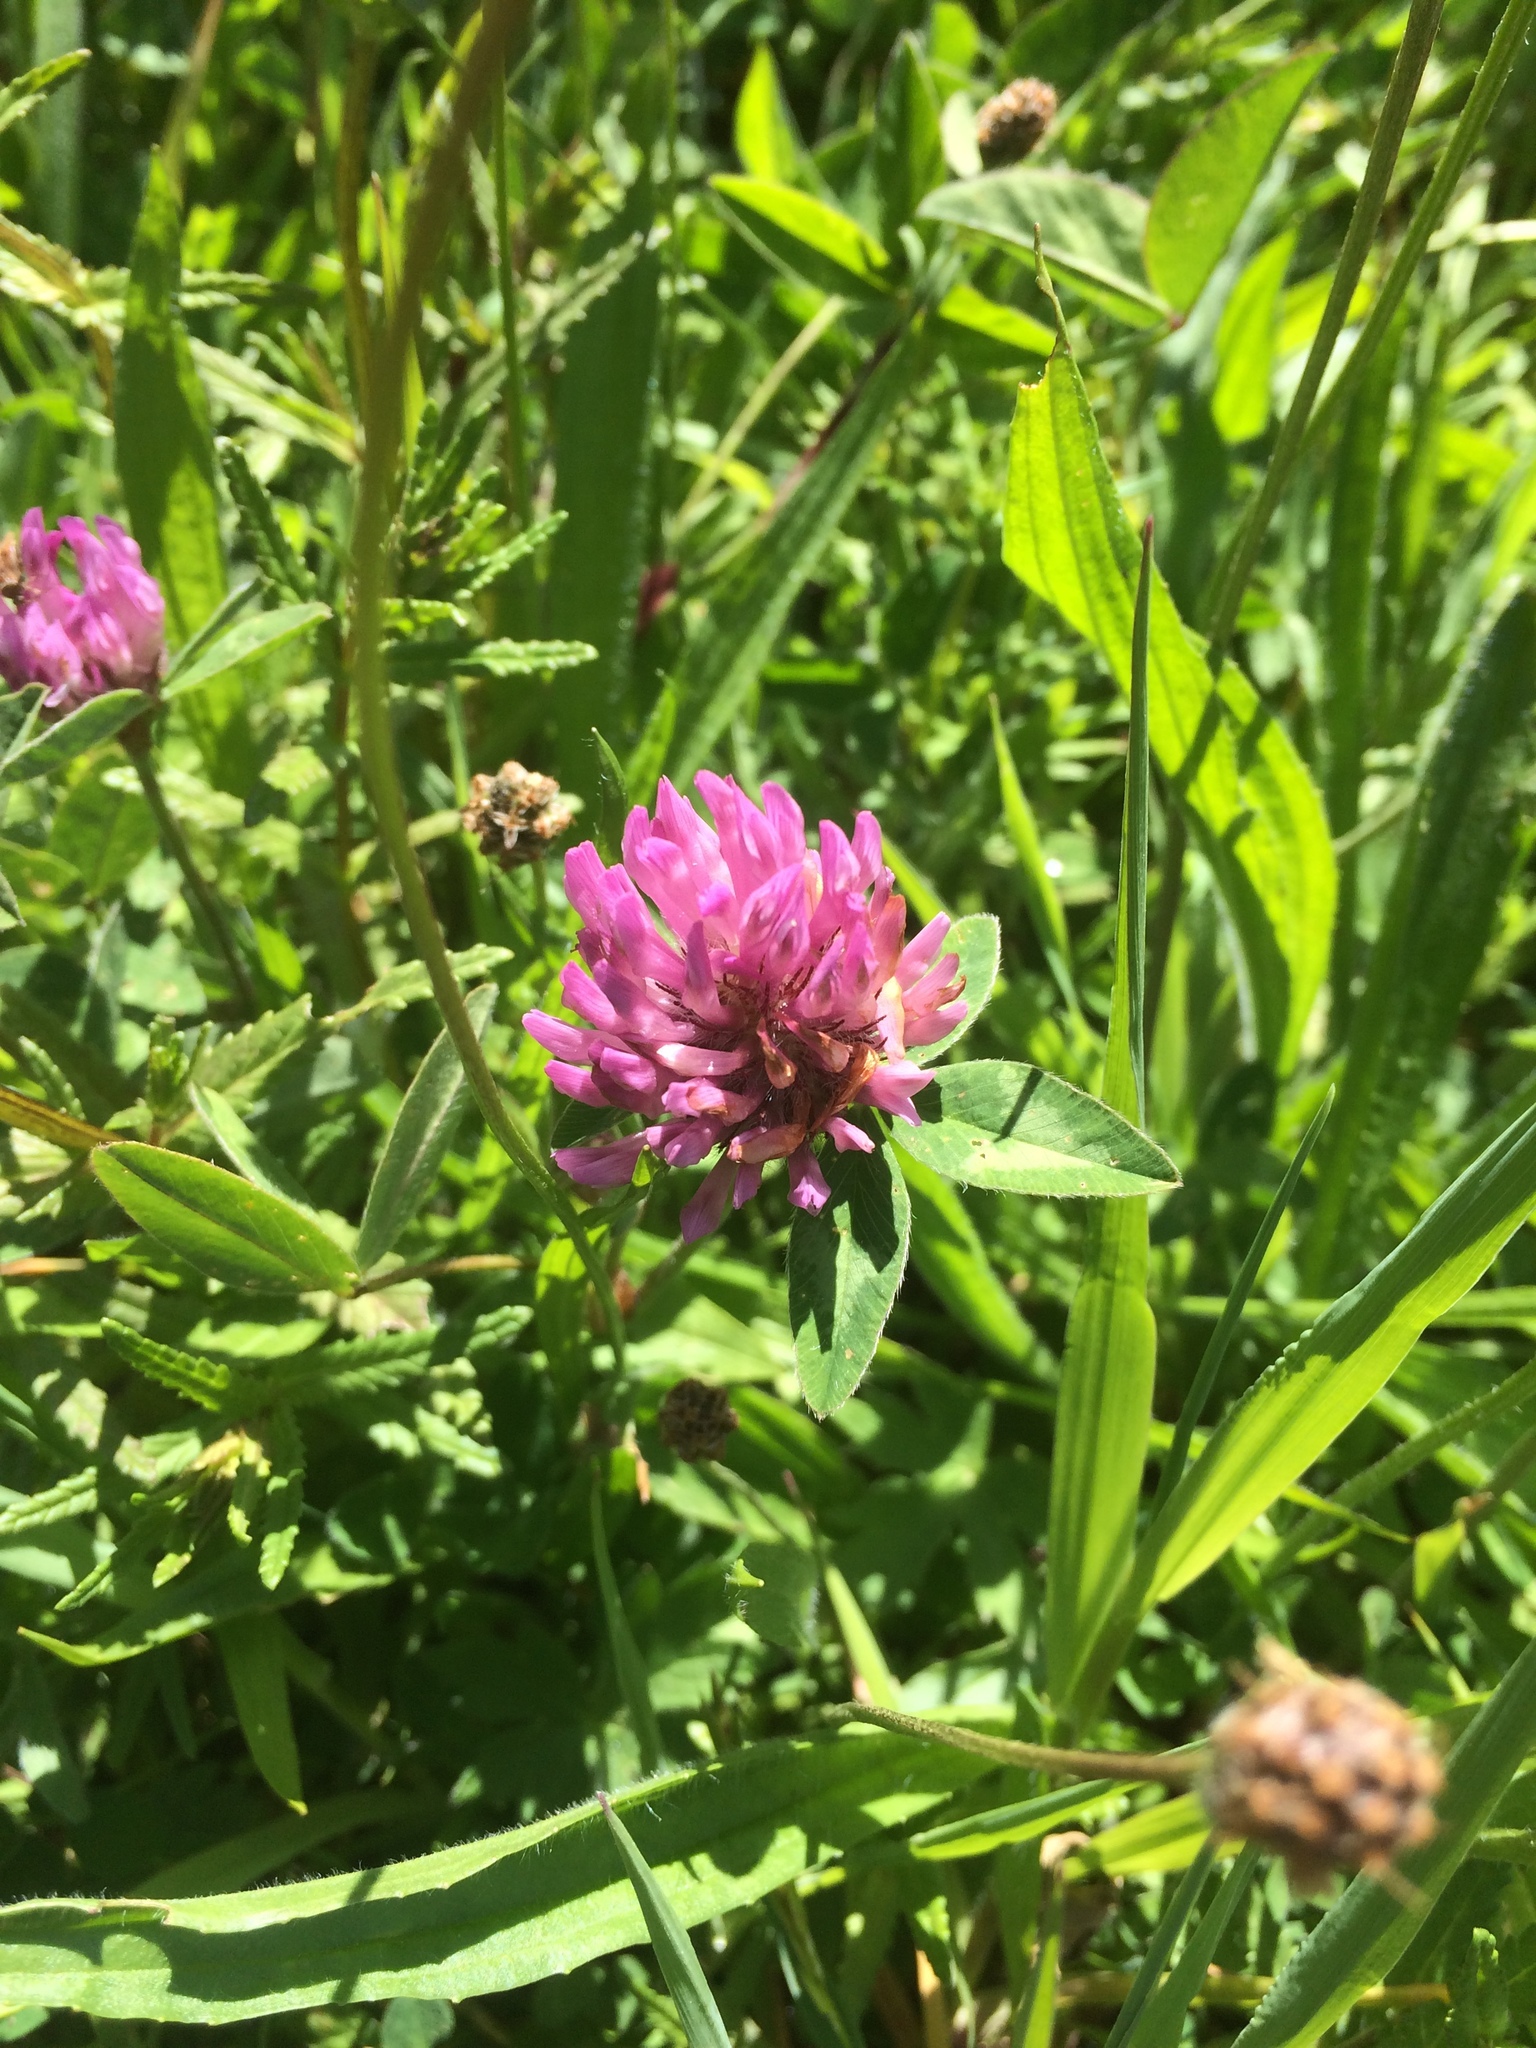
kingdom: Plantae
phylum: Tracheophyta
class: Magnoliopsida
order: Fabales
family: Fabaceae
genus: Trifolium
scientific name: Trifolium pratense
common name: Red clover
